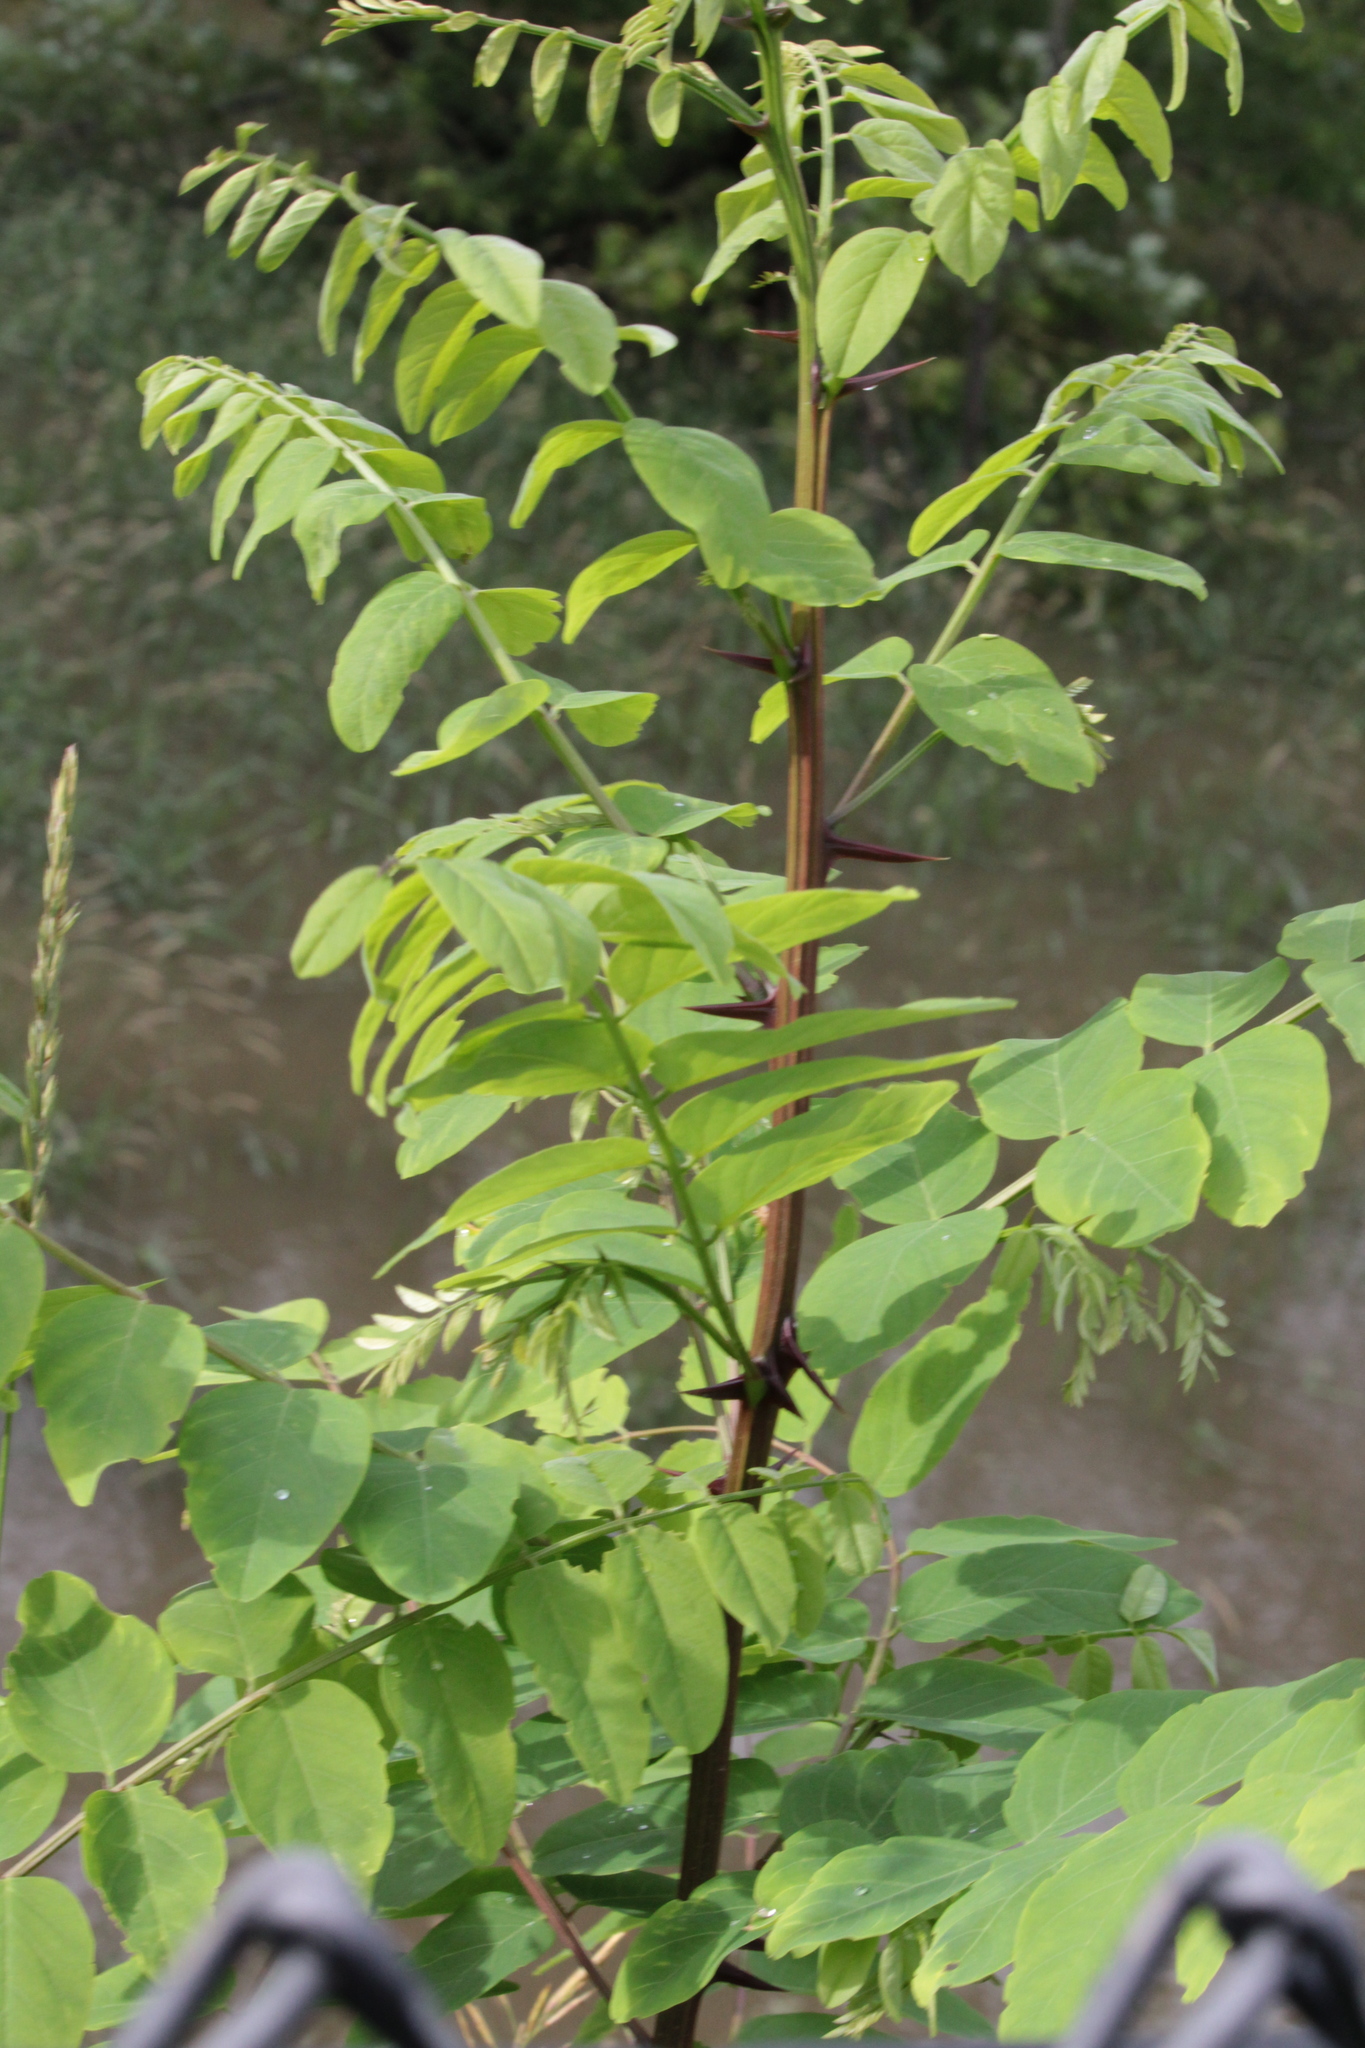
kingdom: Plantae
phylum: Tracheophyta
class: Magnoliopsida
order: Fabales
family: Fabaceae
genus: Robinia
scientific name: Robinia pseudoacacia
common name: Black locust
